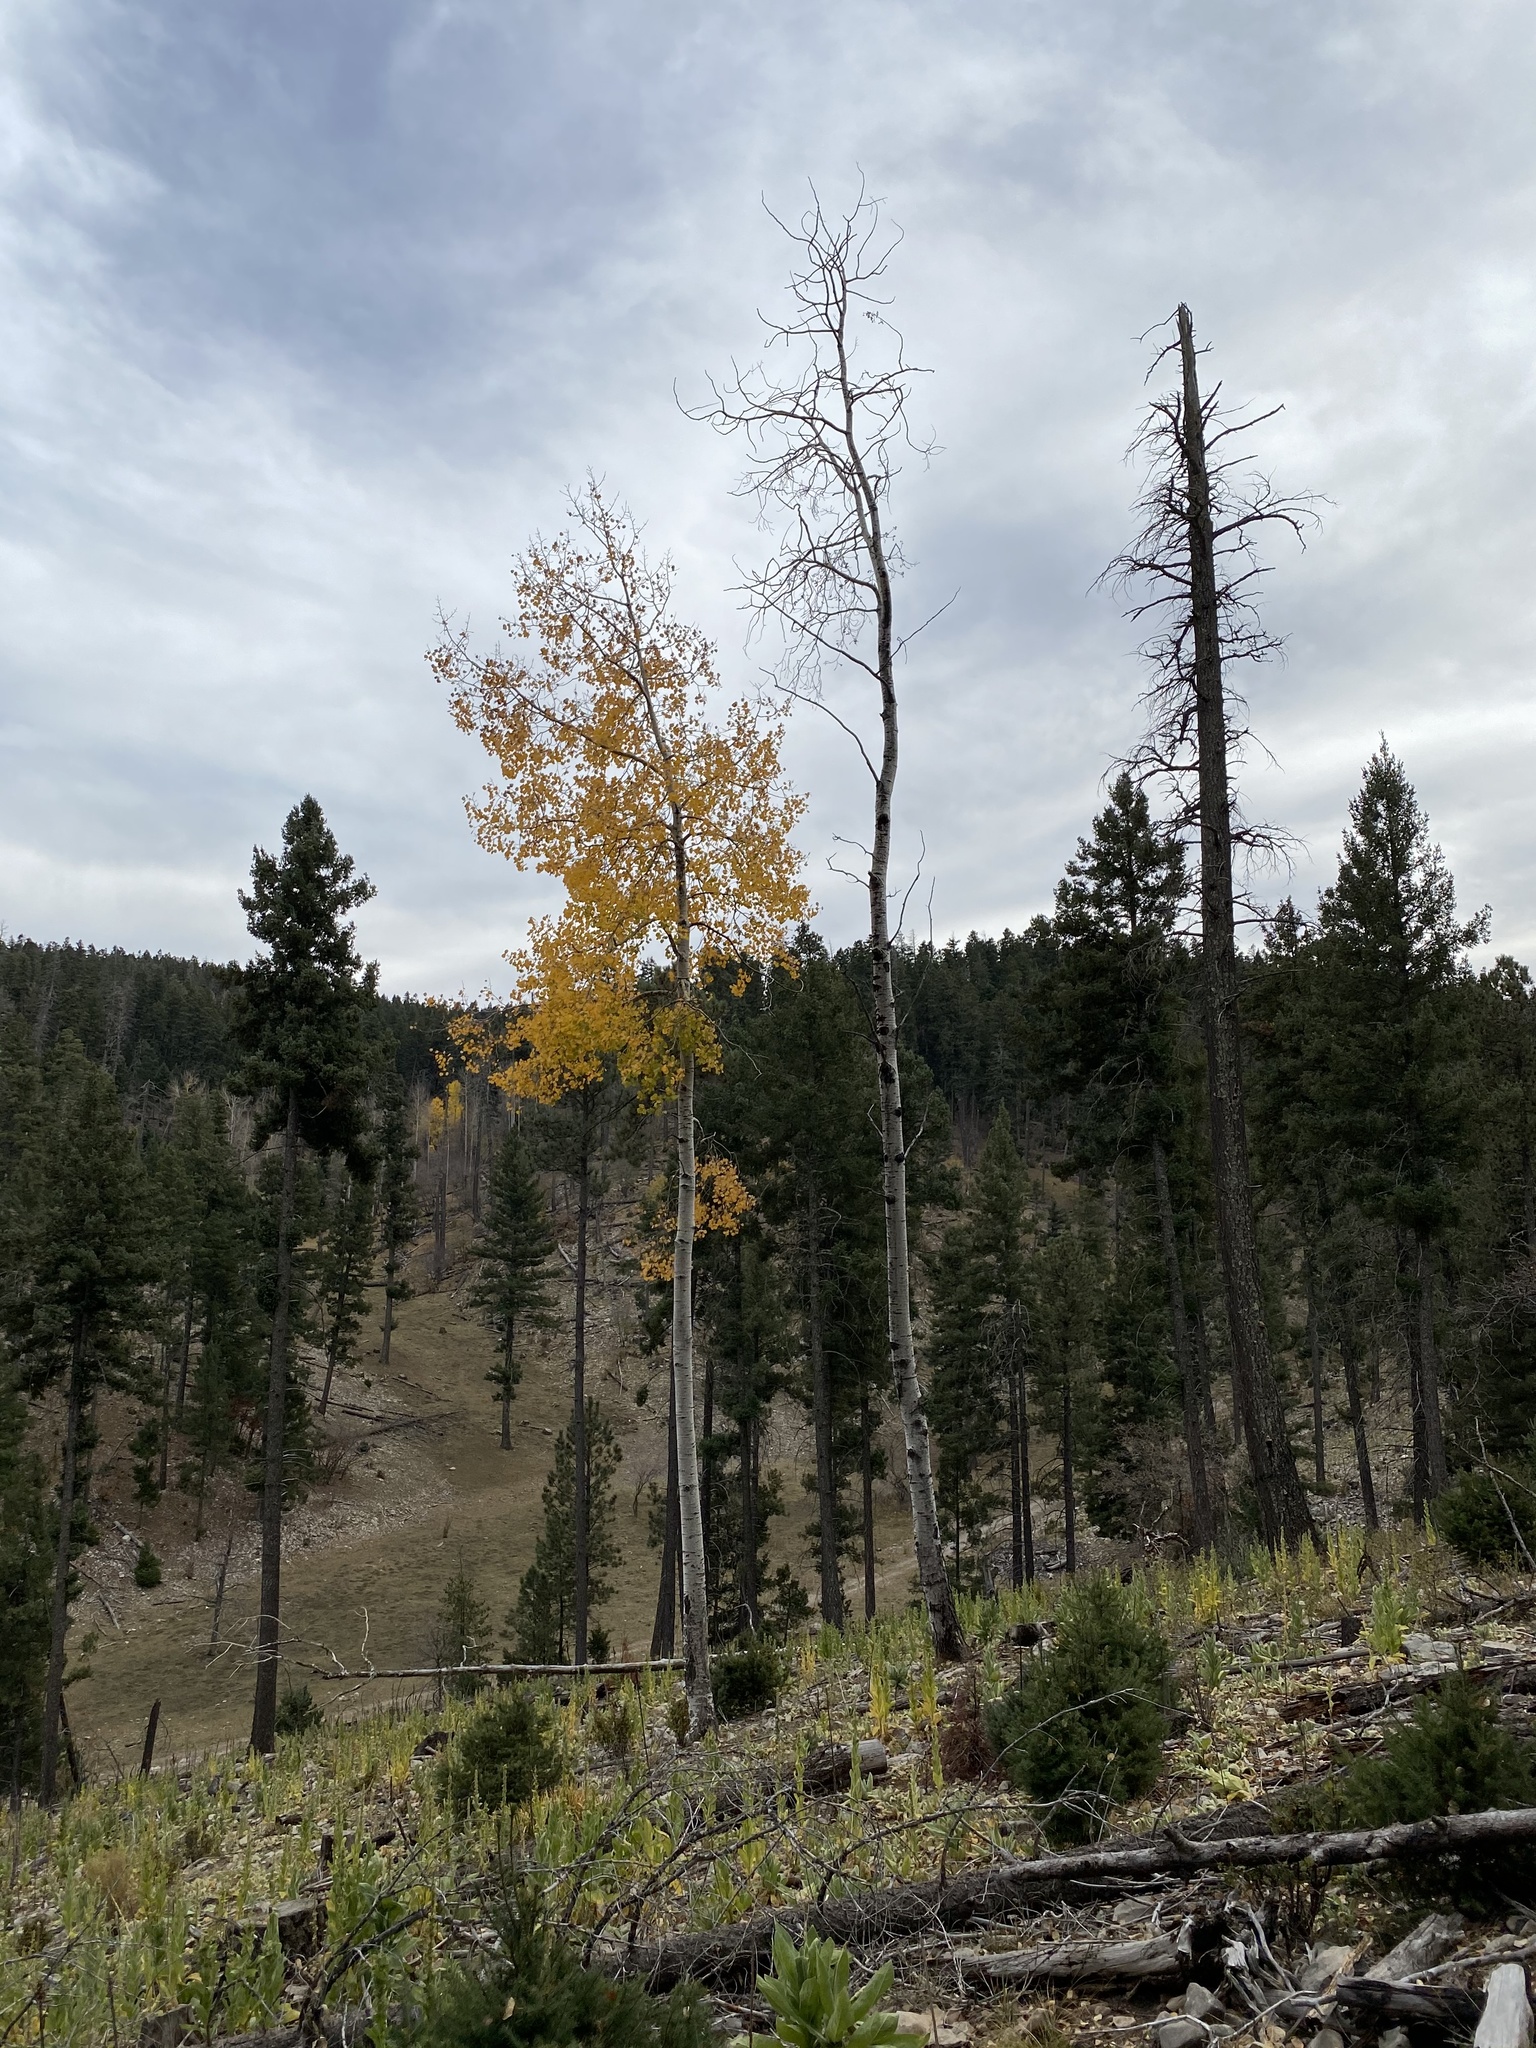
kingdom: Plantae
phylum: Tracheophyta
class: Magnoliopsida
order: Malpighiales
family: Salicaceae
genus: Populus
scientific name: Populus tremuloides
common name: Quaking aspen
